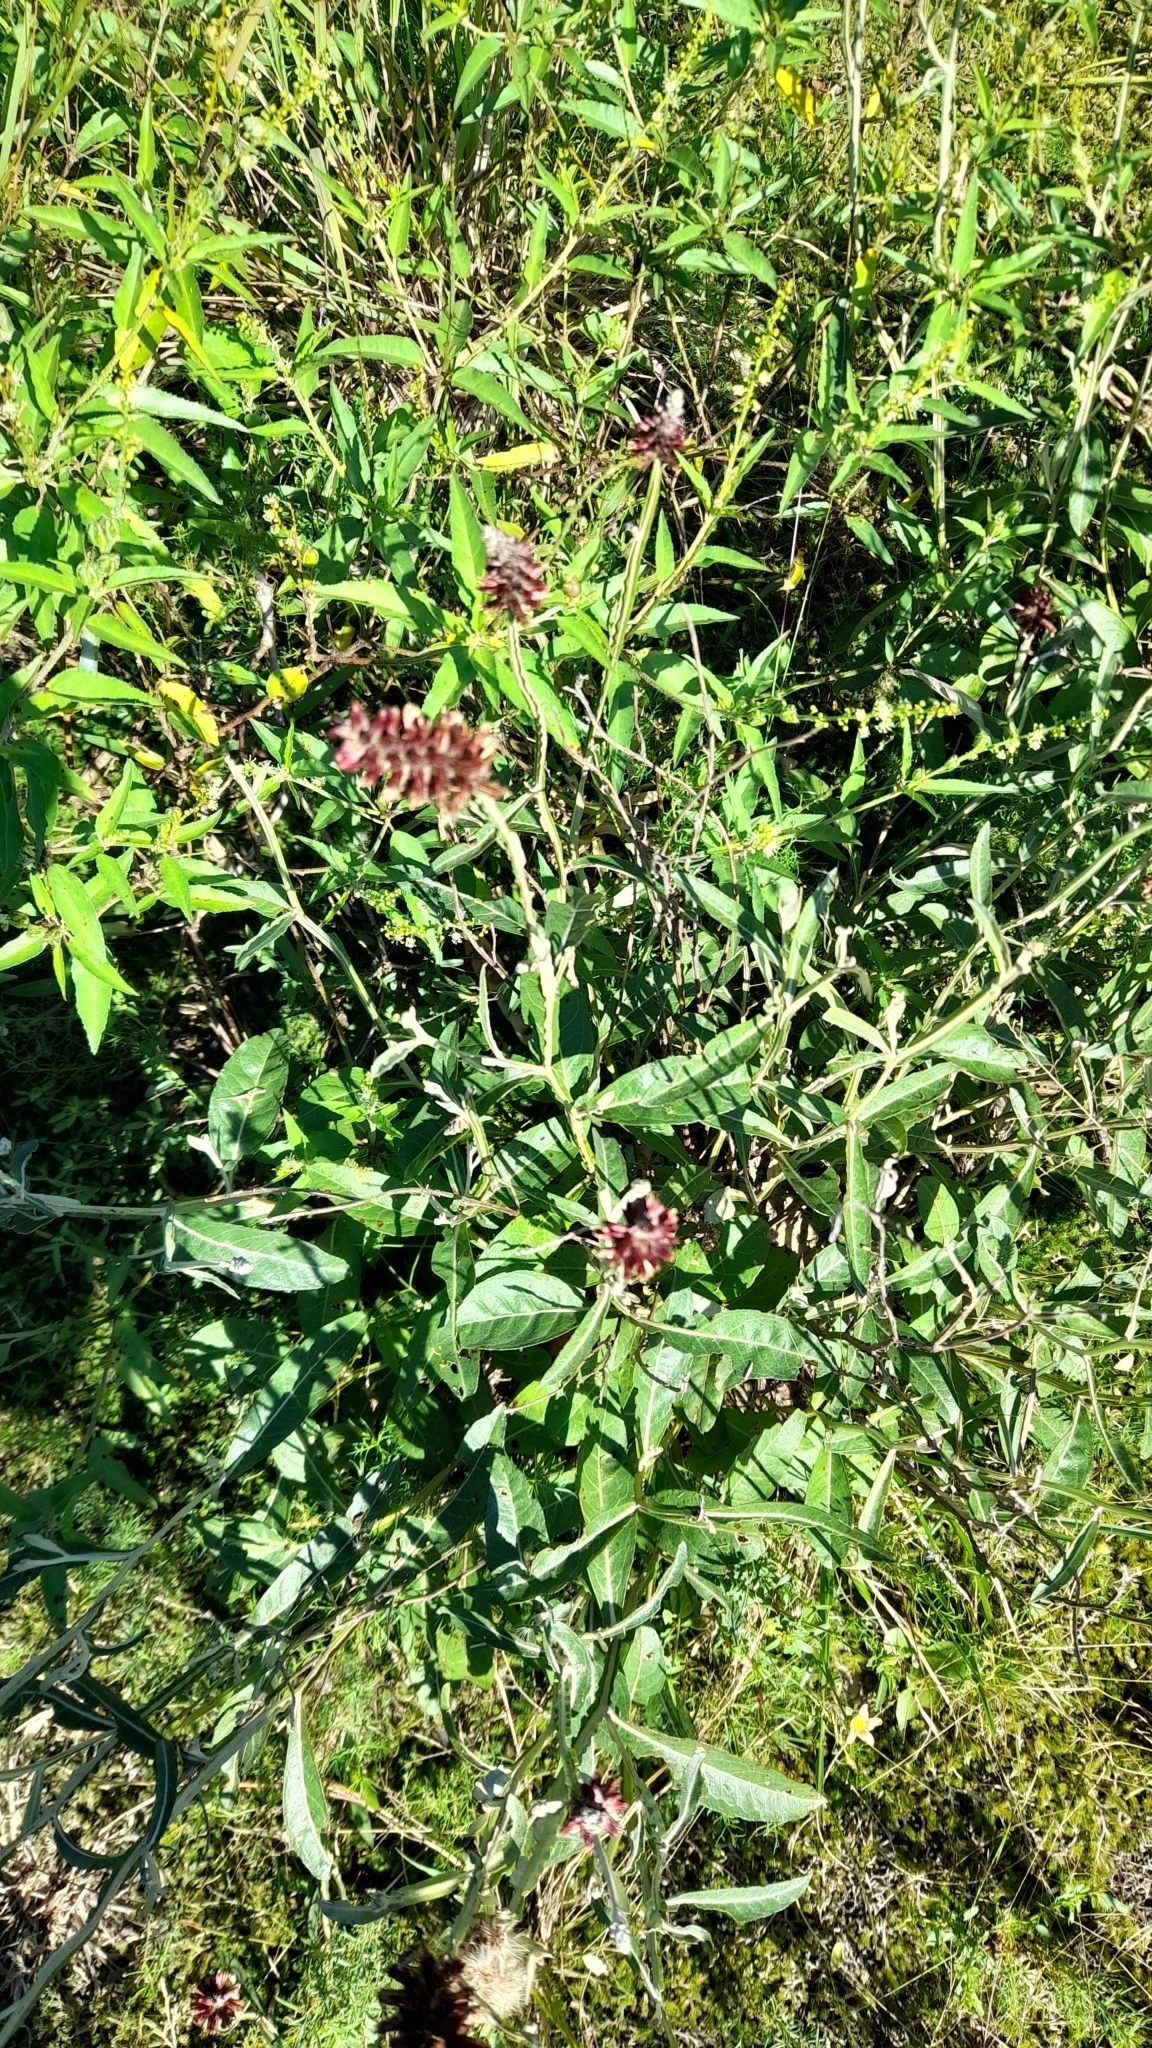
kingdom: Plantae
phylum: Tracheophyta
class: Magnoliopsida
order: Asterales
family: Asteraceae
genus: Pterocaulon
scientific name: Pterocaulon purpurascens
